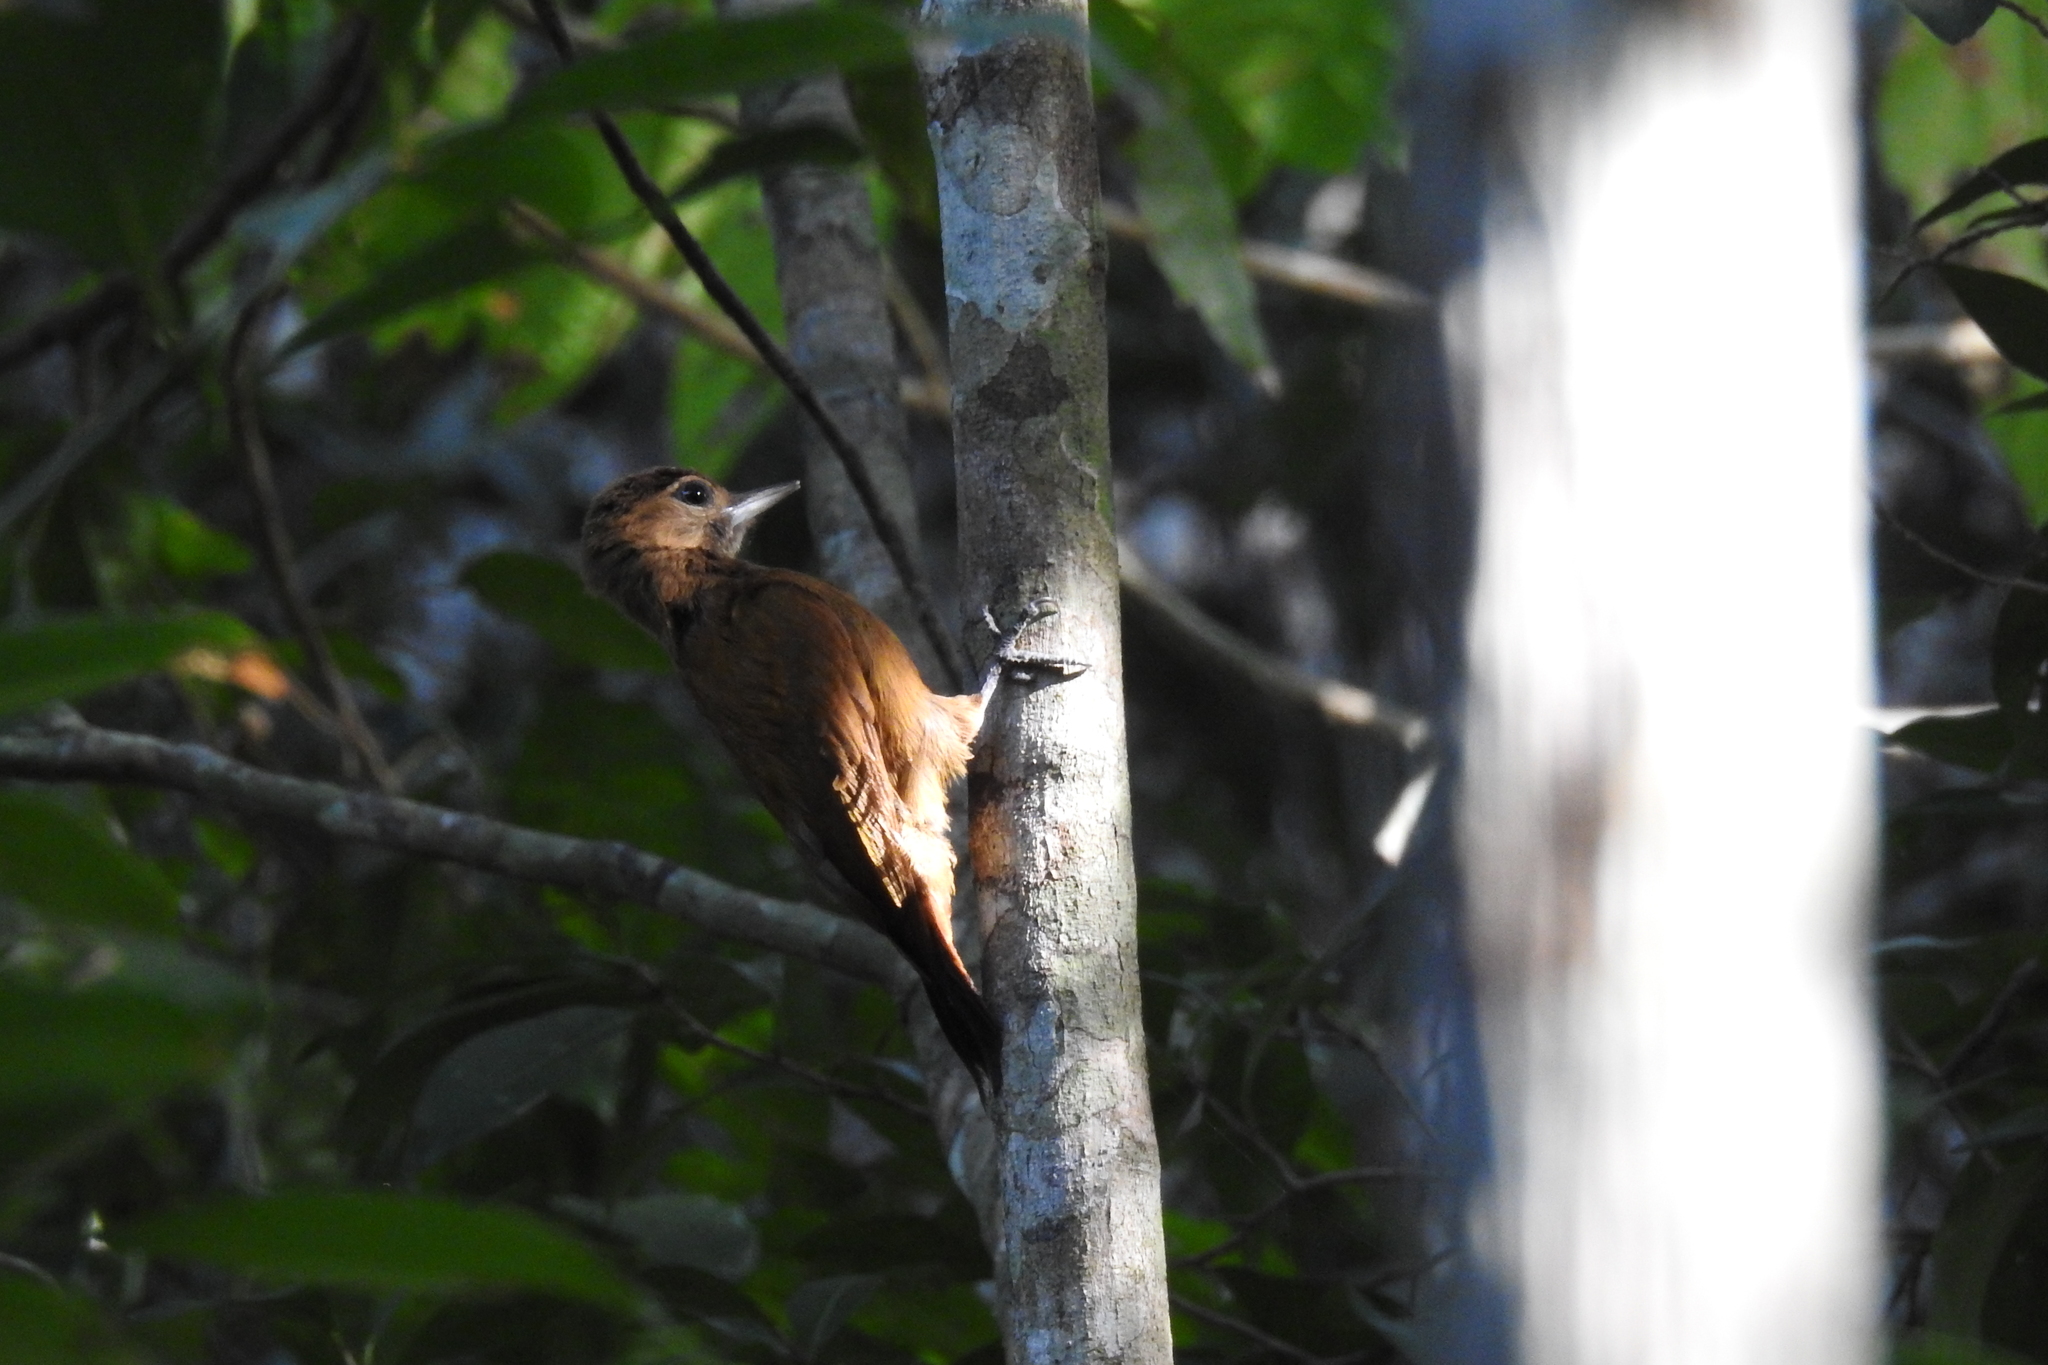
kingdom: Animalia
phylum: Chordata
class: Aves
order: Piciformes
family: Picidae
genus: Leuconotopicus
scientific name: Leuconotopicus fumigatus
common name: Smoky-brown woodpecker
